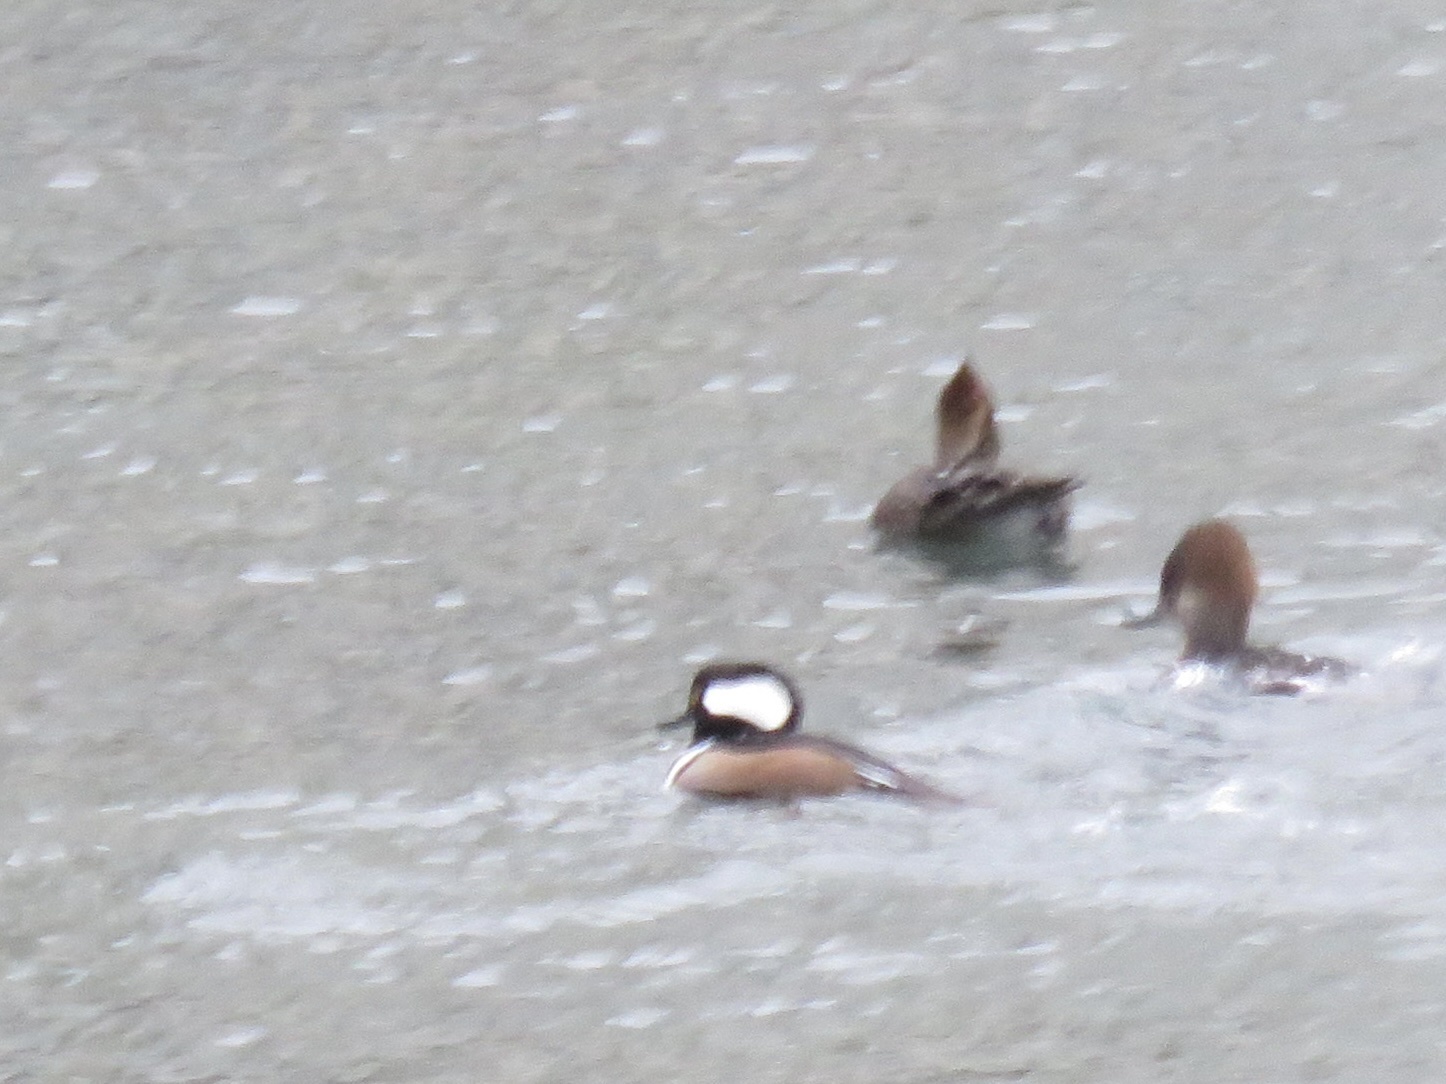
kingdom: Animalia
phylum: Chordata
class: Aves
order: Anseriformes
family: Anatidae
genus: Lophodytes
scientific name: Lophodytes cucullatus
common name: Hooded merganser
